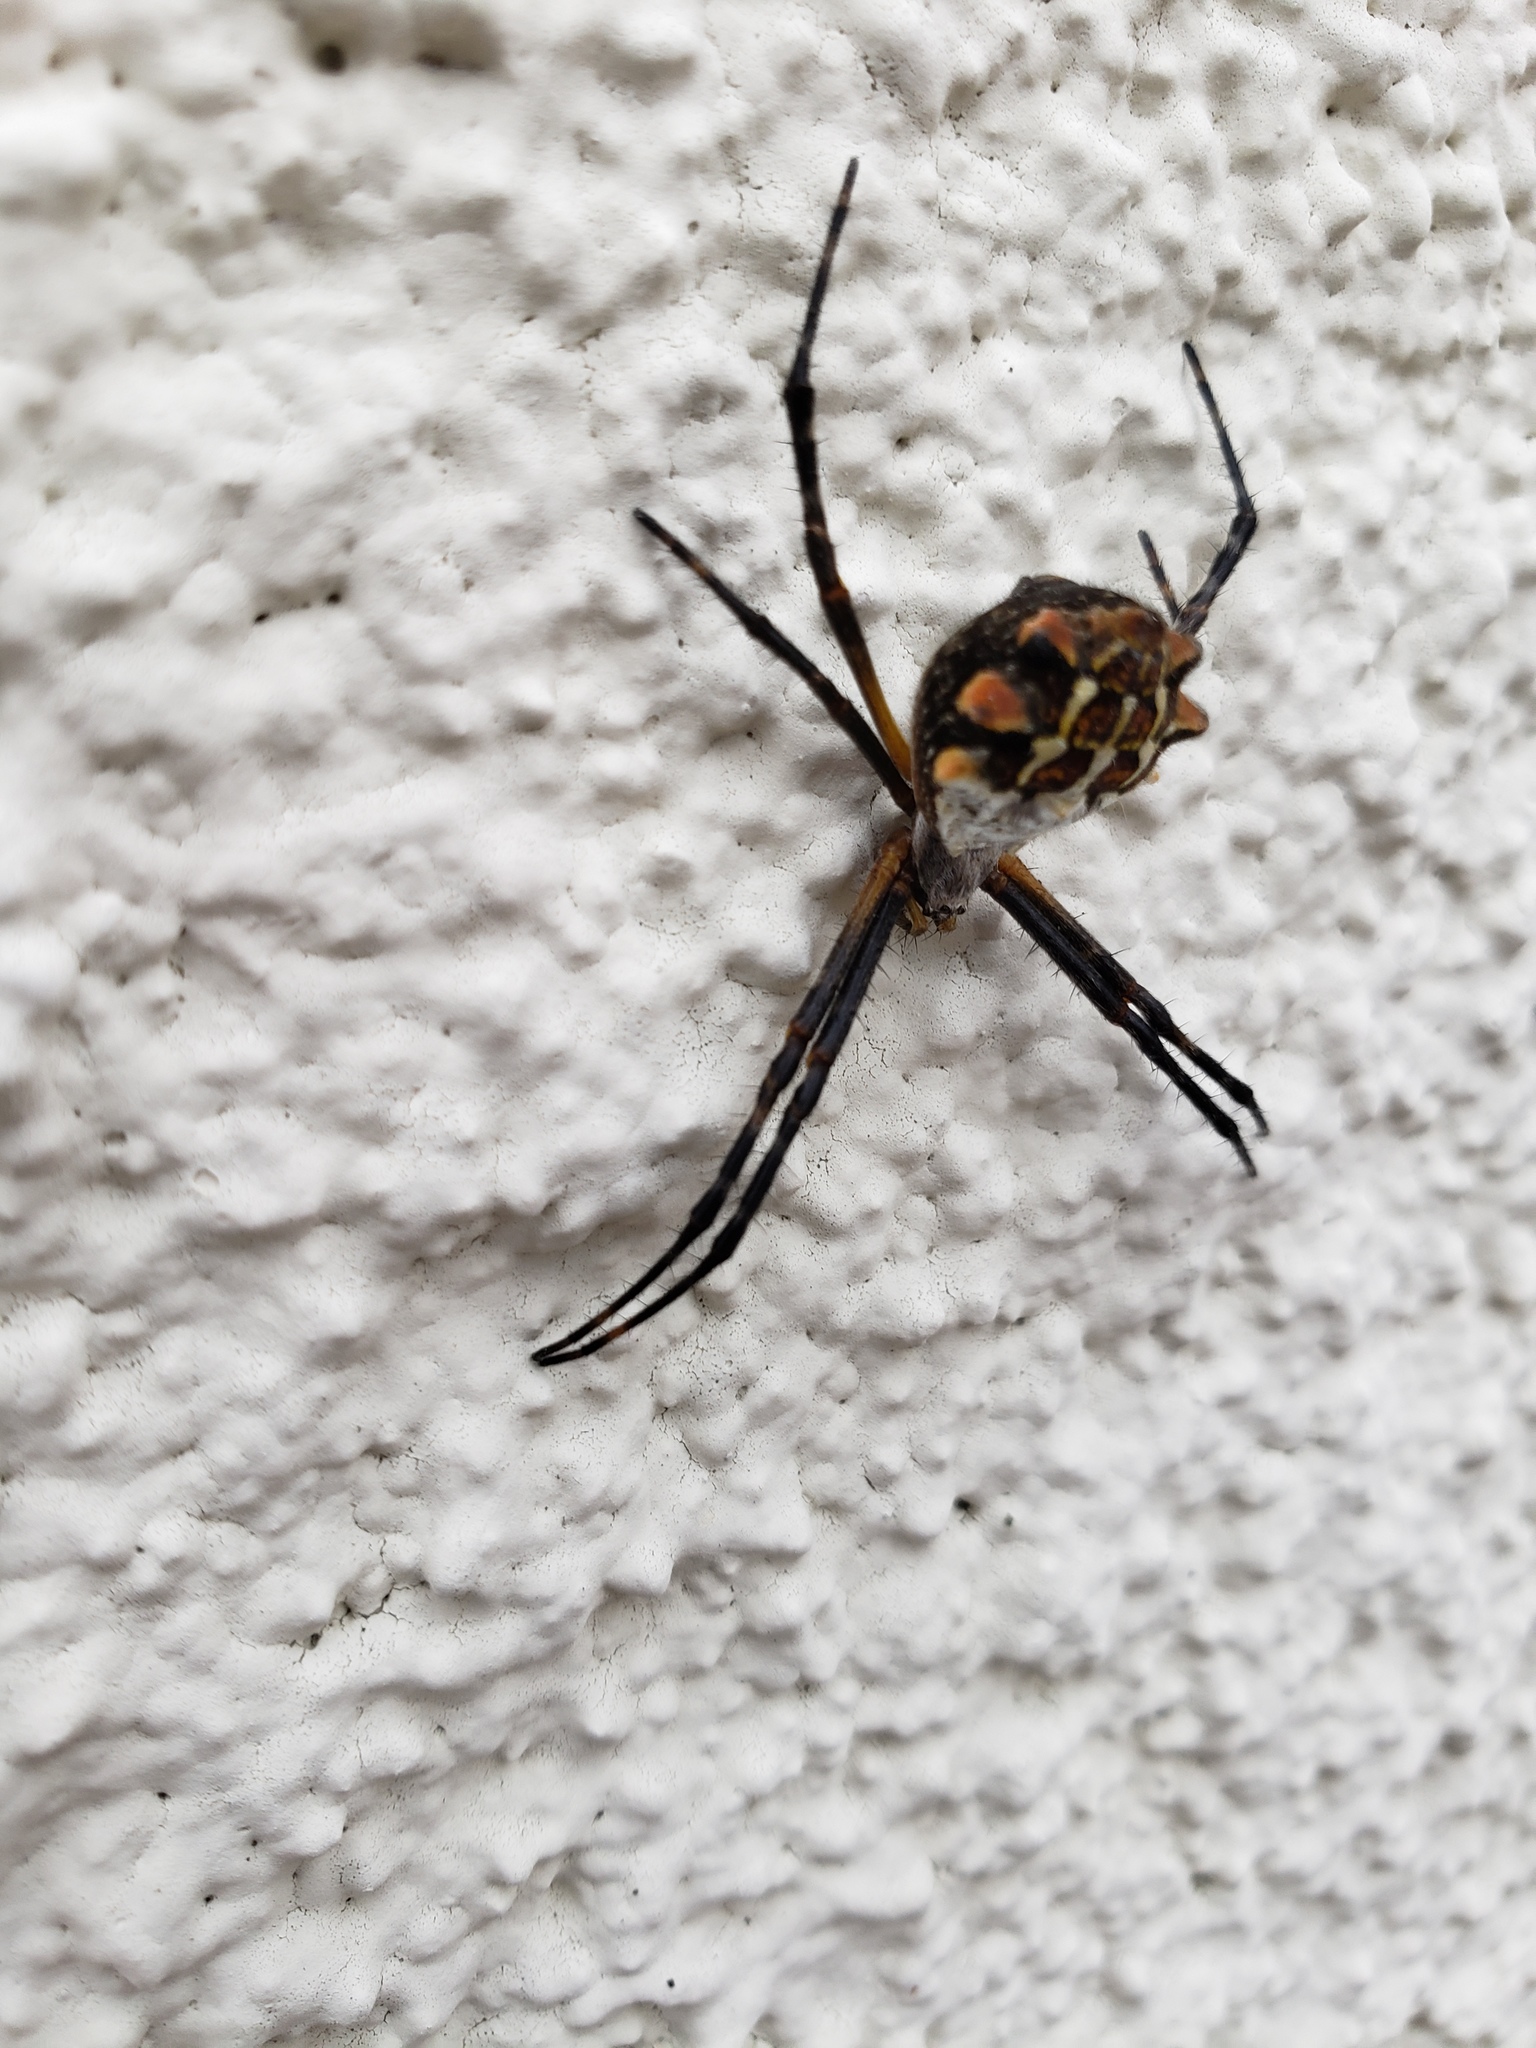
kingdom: Animalia
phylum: Arthropoda
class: Arachnida
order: Araneae
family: Araneidae
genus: Argiope
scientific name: Argiope argentata
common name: Orb weavers
